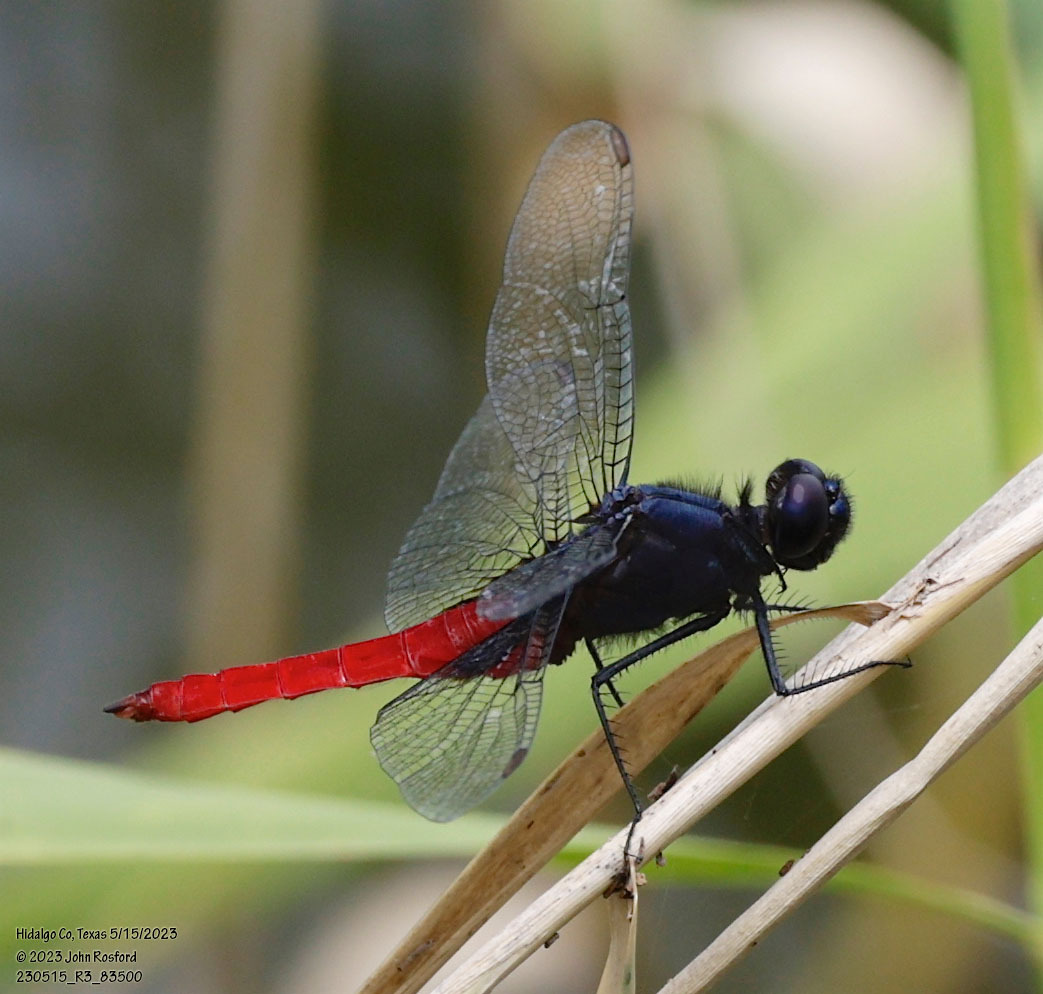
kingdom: Animalia
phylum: Arthropoda
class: Insecta
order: Odonata
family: Libellulidae
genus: Planiplax
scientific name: Planiplax sanguiniventris
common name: Mexican scarlet-tail
